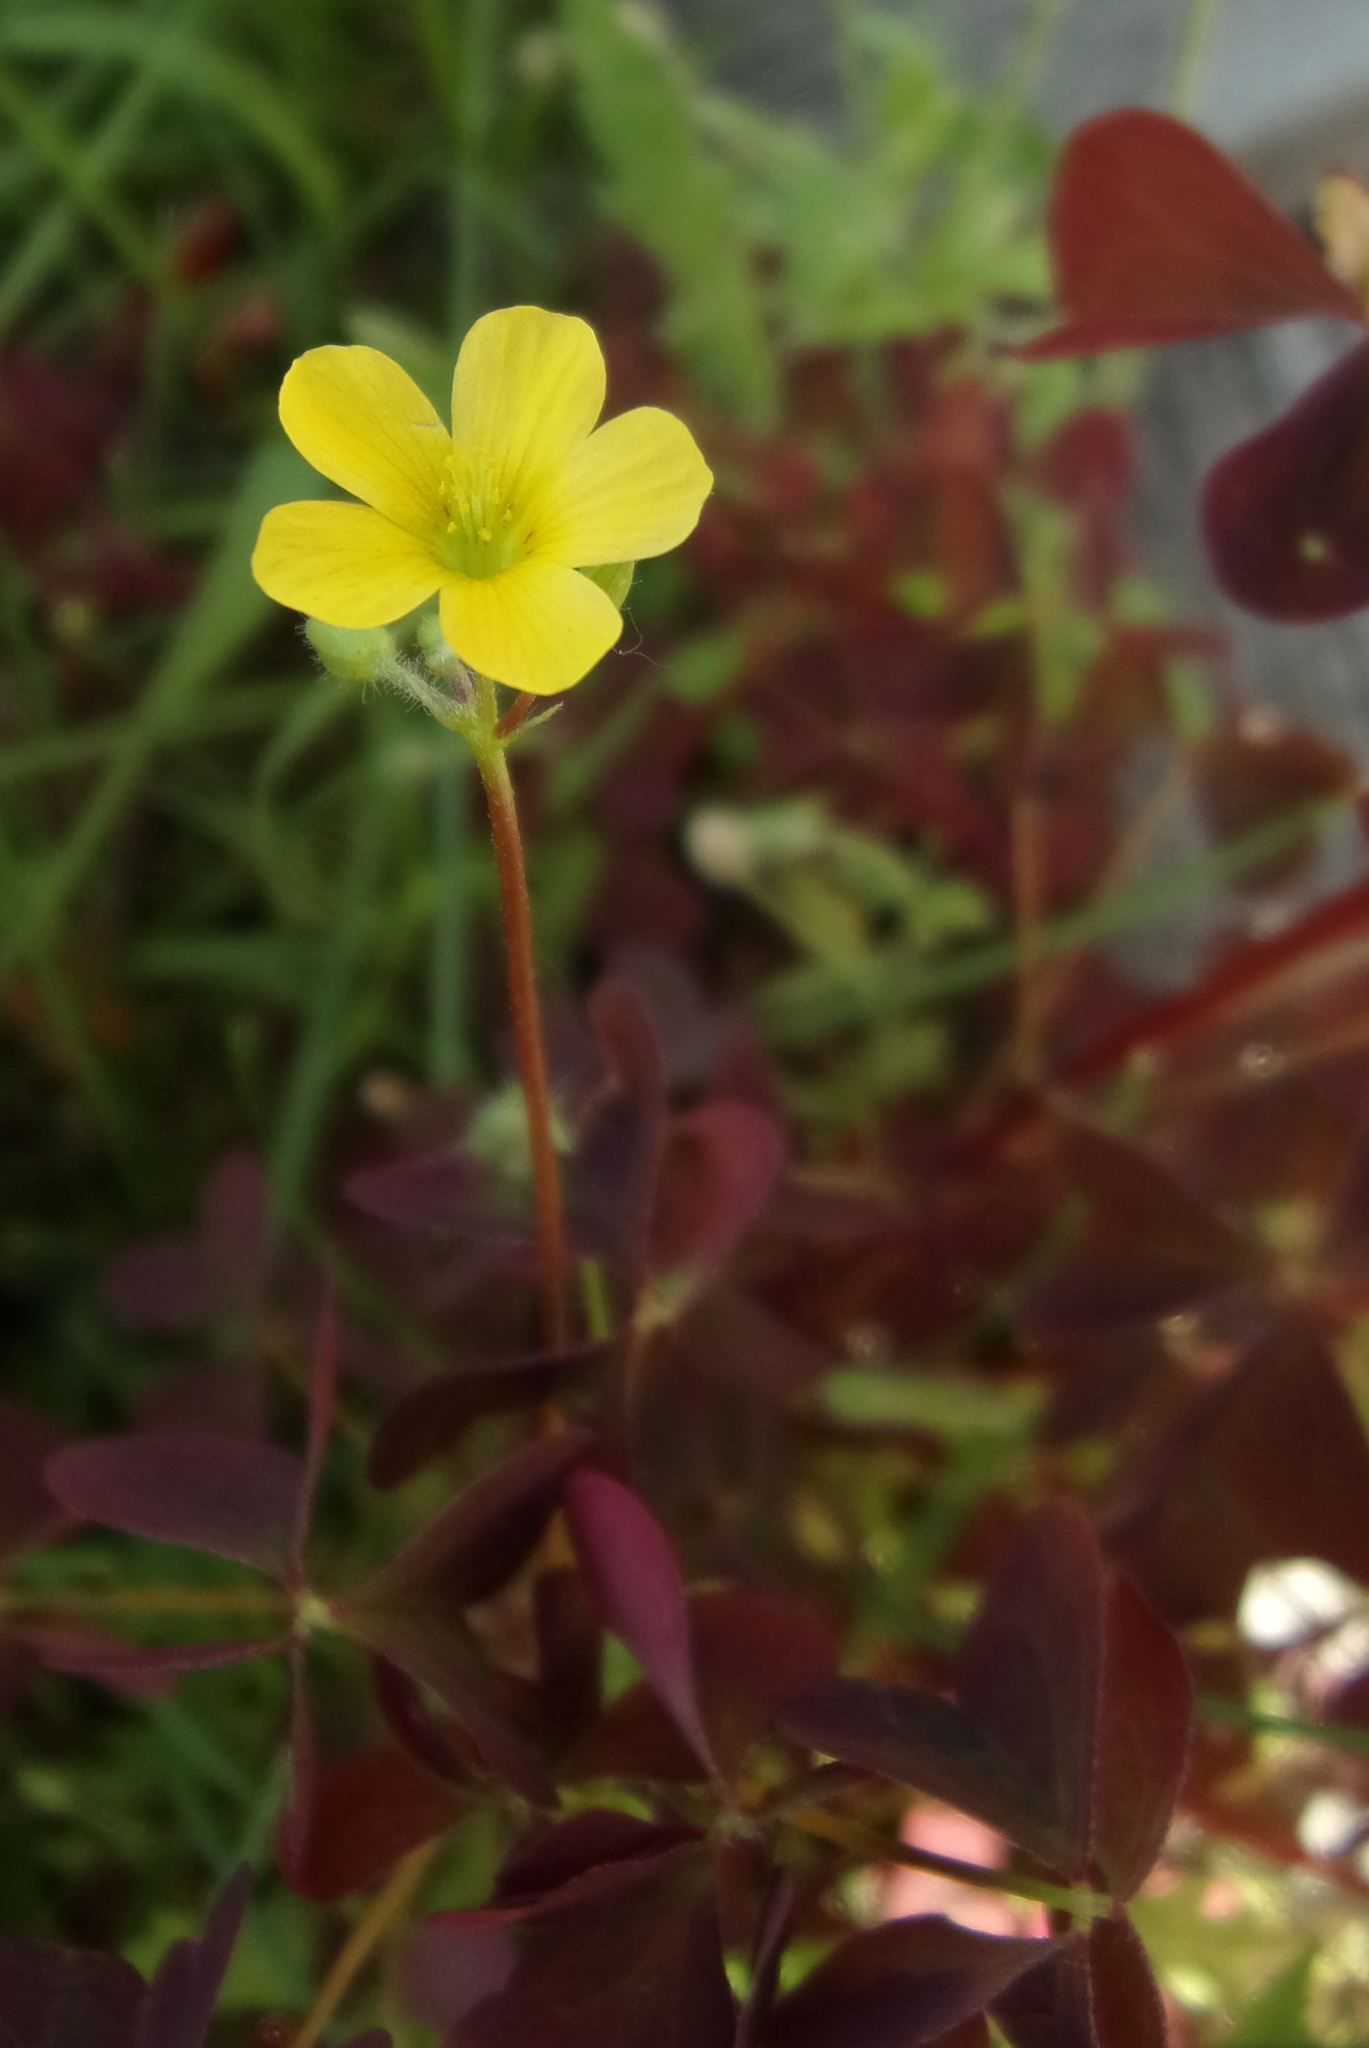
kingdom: Plantae
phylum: Tracheophyta
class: Magnoliopsida
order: Oxalidales
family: Oxalidaceae
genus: Oxalis
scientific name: Oxalis stricta
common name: Upright yellow-sorrel
